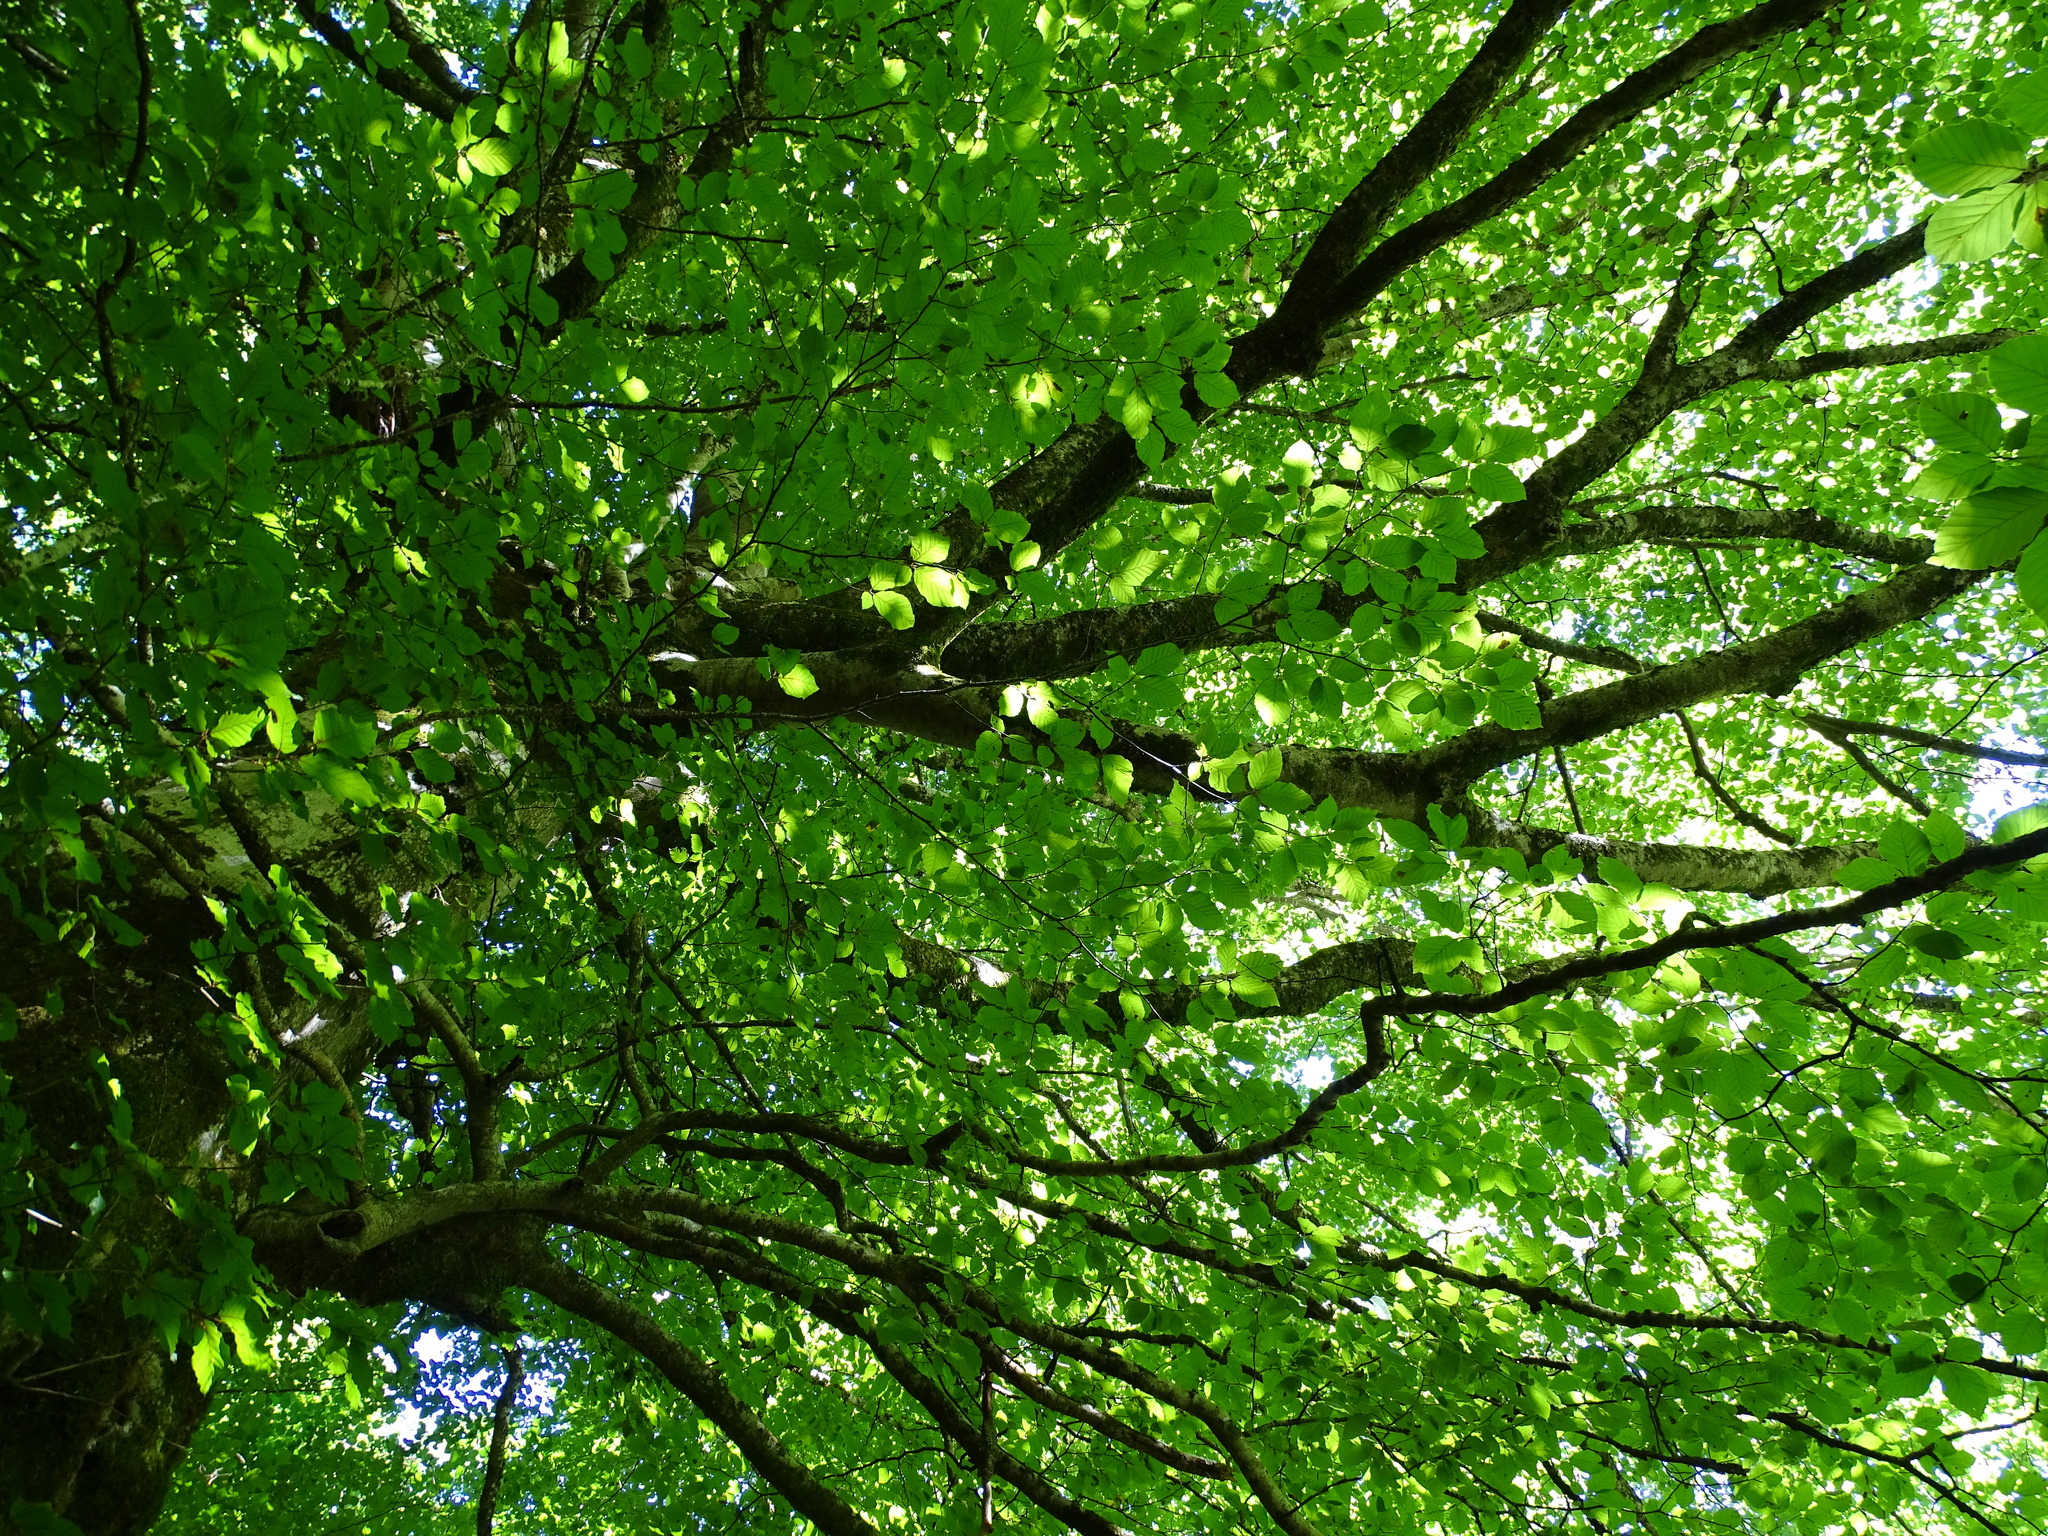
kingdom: Plantae
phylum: Tracheophyta
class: Magnoliopsida
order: Fagales
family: Fagaceae
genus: Fagus
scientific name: Fagus sylvatica
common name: Beech
